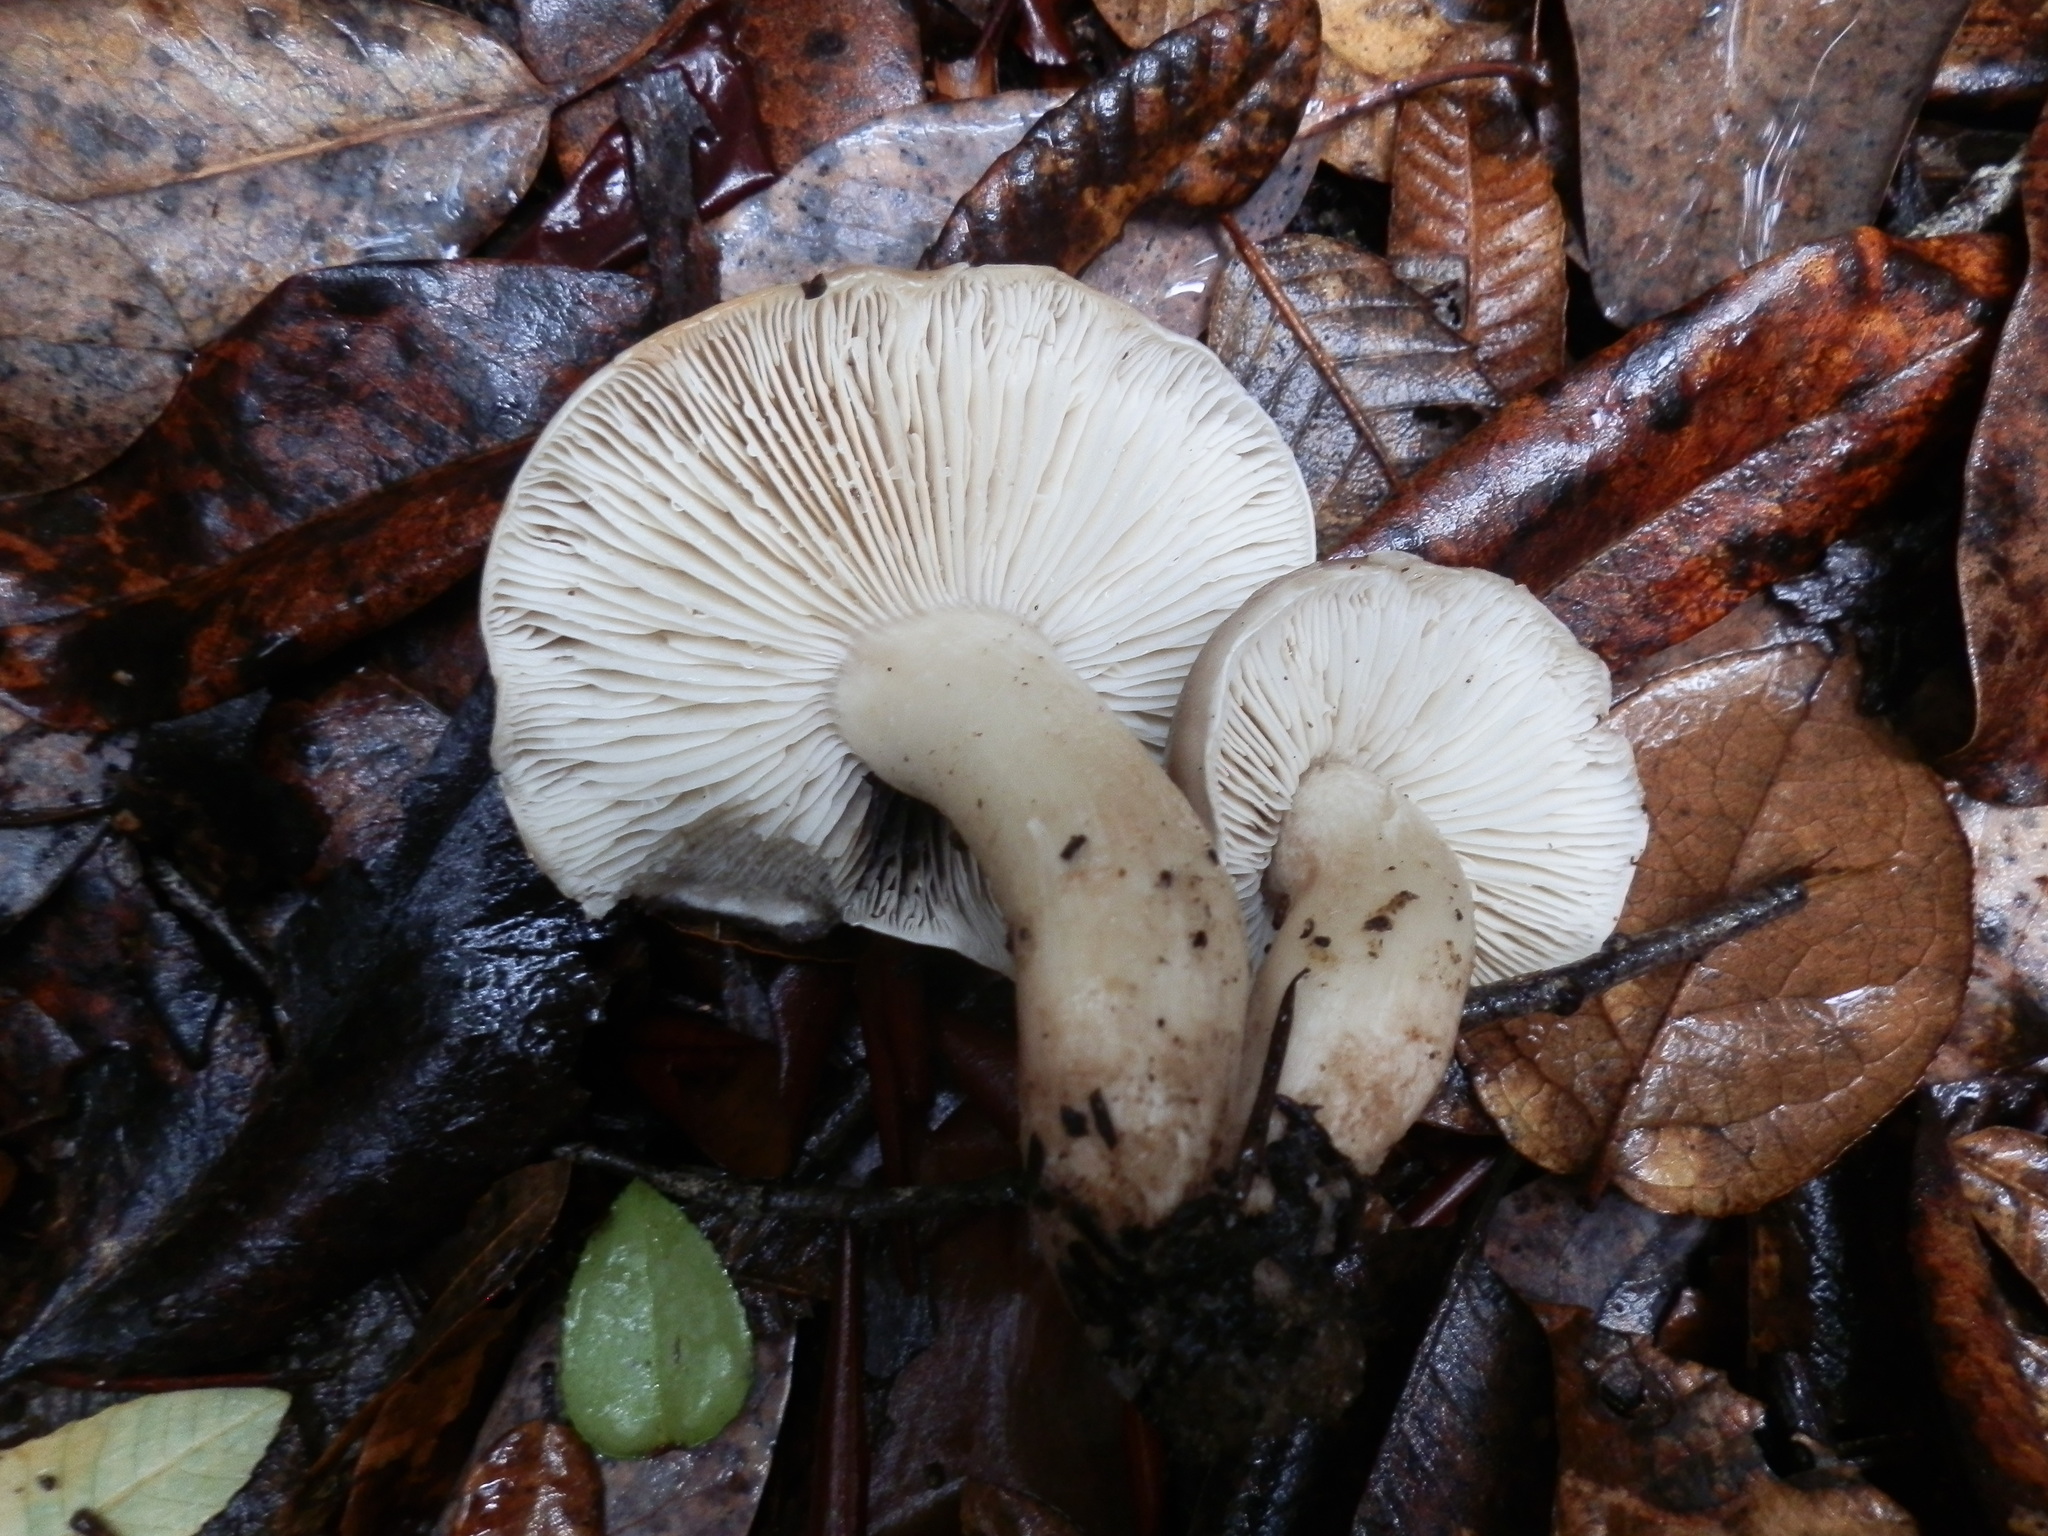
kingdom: Fungi
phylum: Basidiomycota
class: Agaricomycetes
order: Agaricales
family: Tricholomataceae
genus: Tricholoma
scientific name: Tricholoma saponaceum
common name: Soapy trich
